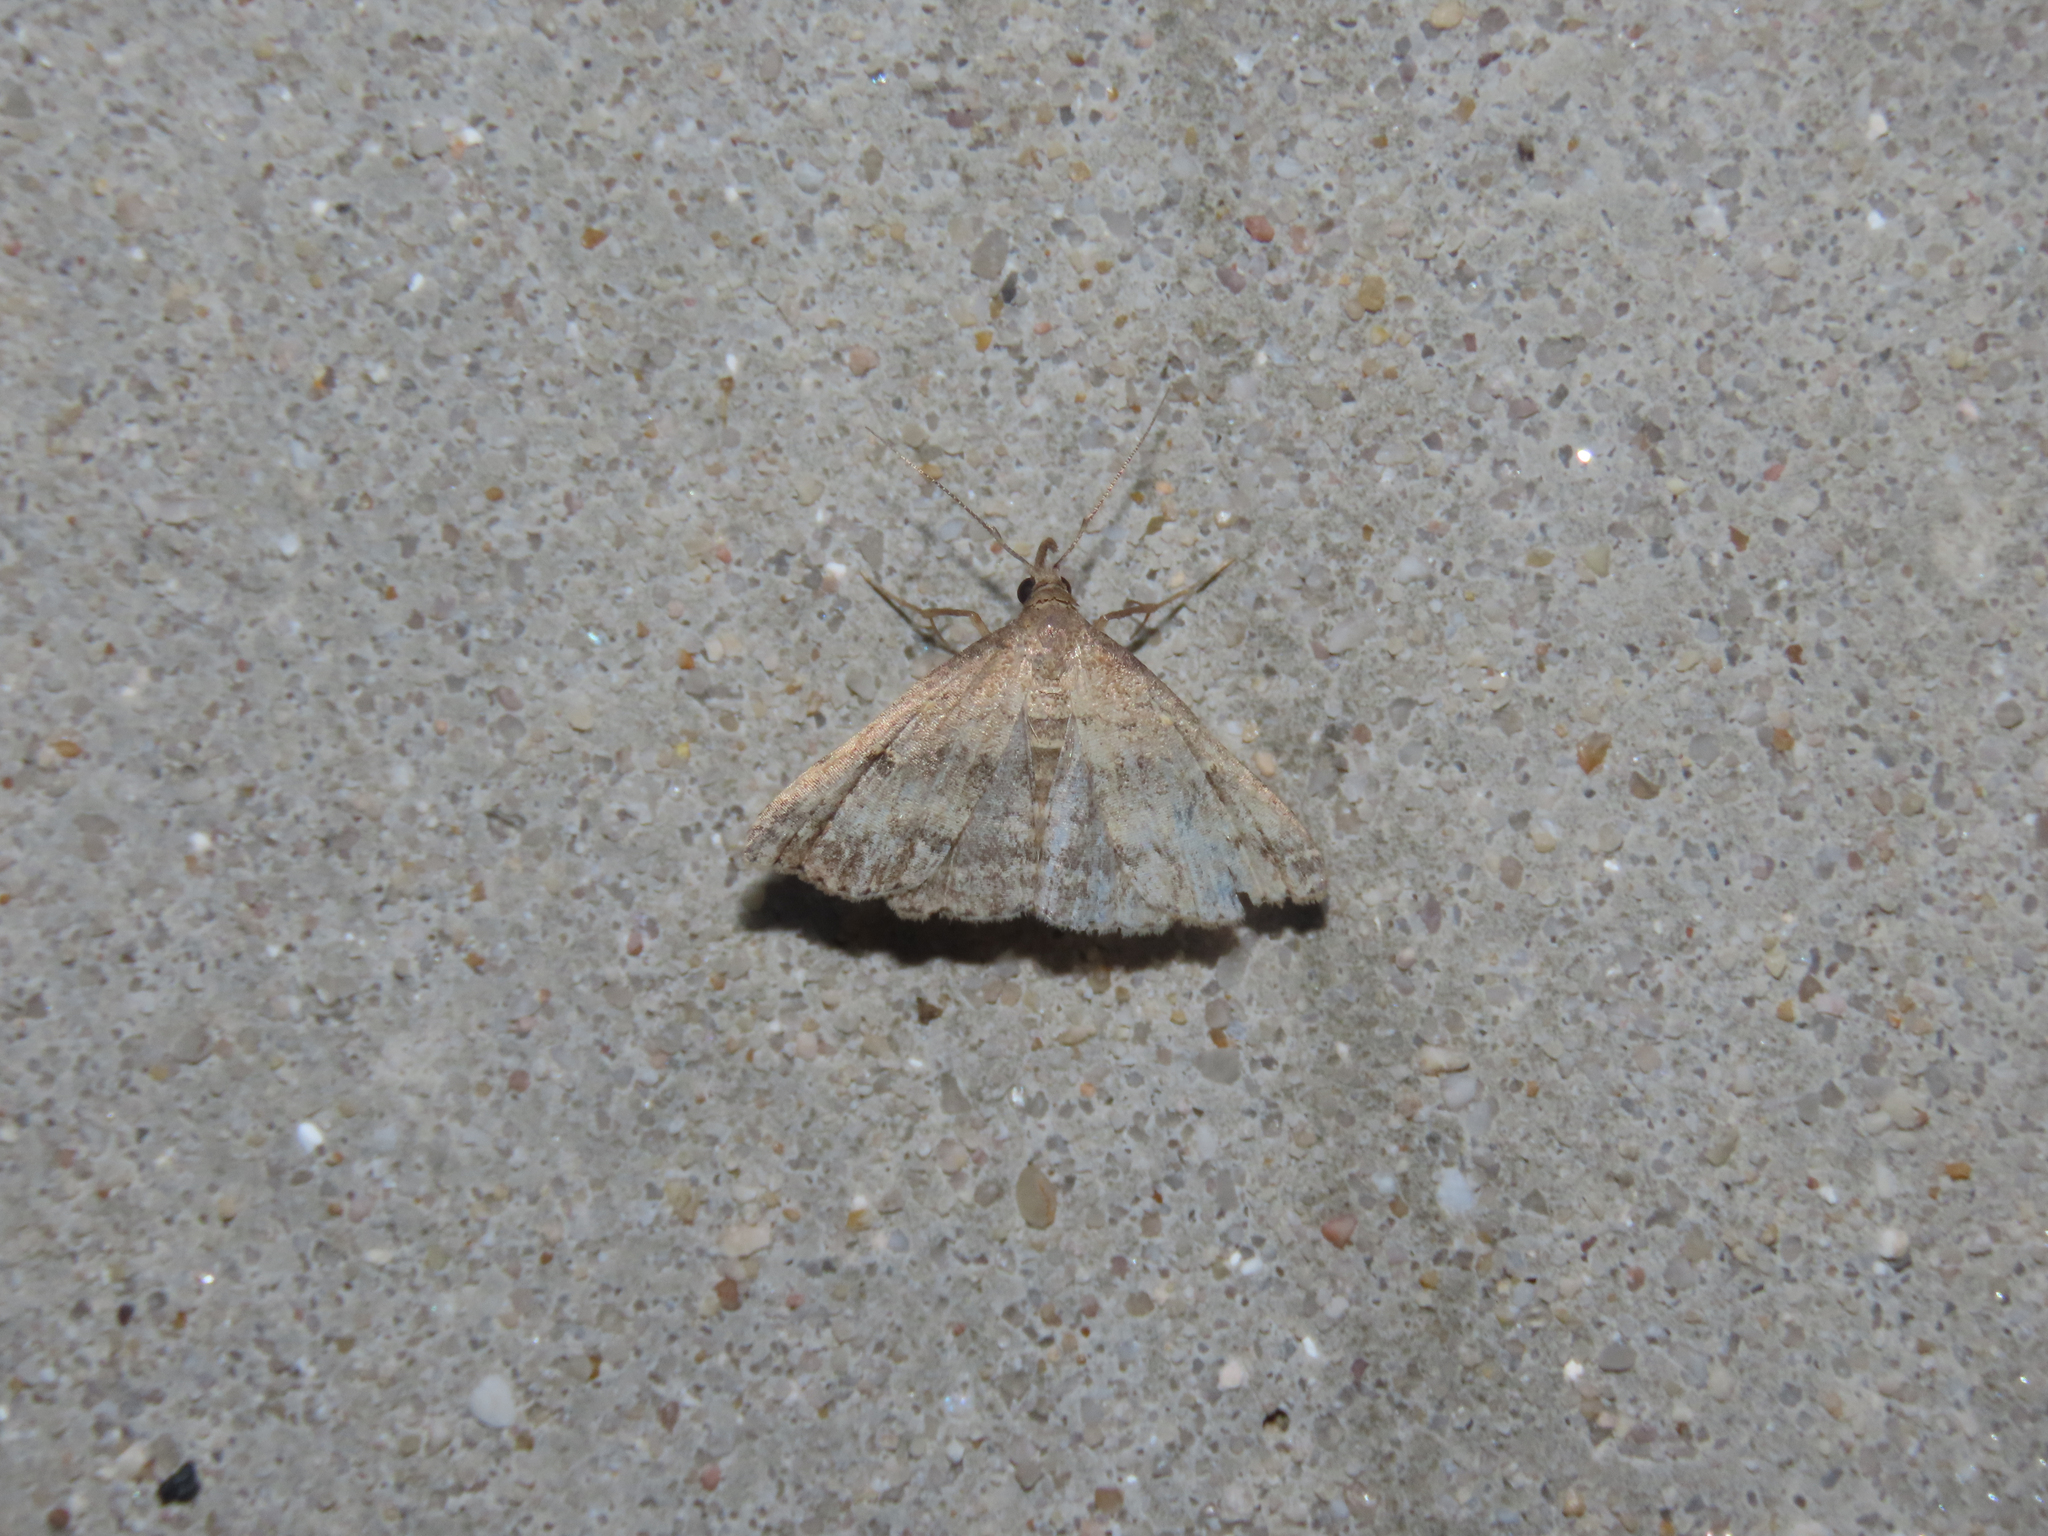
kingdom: Animalia
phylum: Arthropoda
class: Insecta
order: Lepidoptera
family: Erebidae
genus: Tetanolita
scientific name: Tetanolita floridana
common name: Florida tetanolita moth
